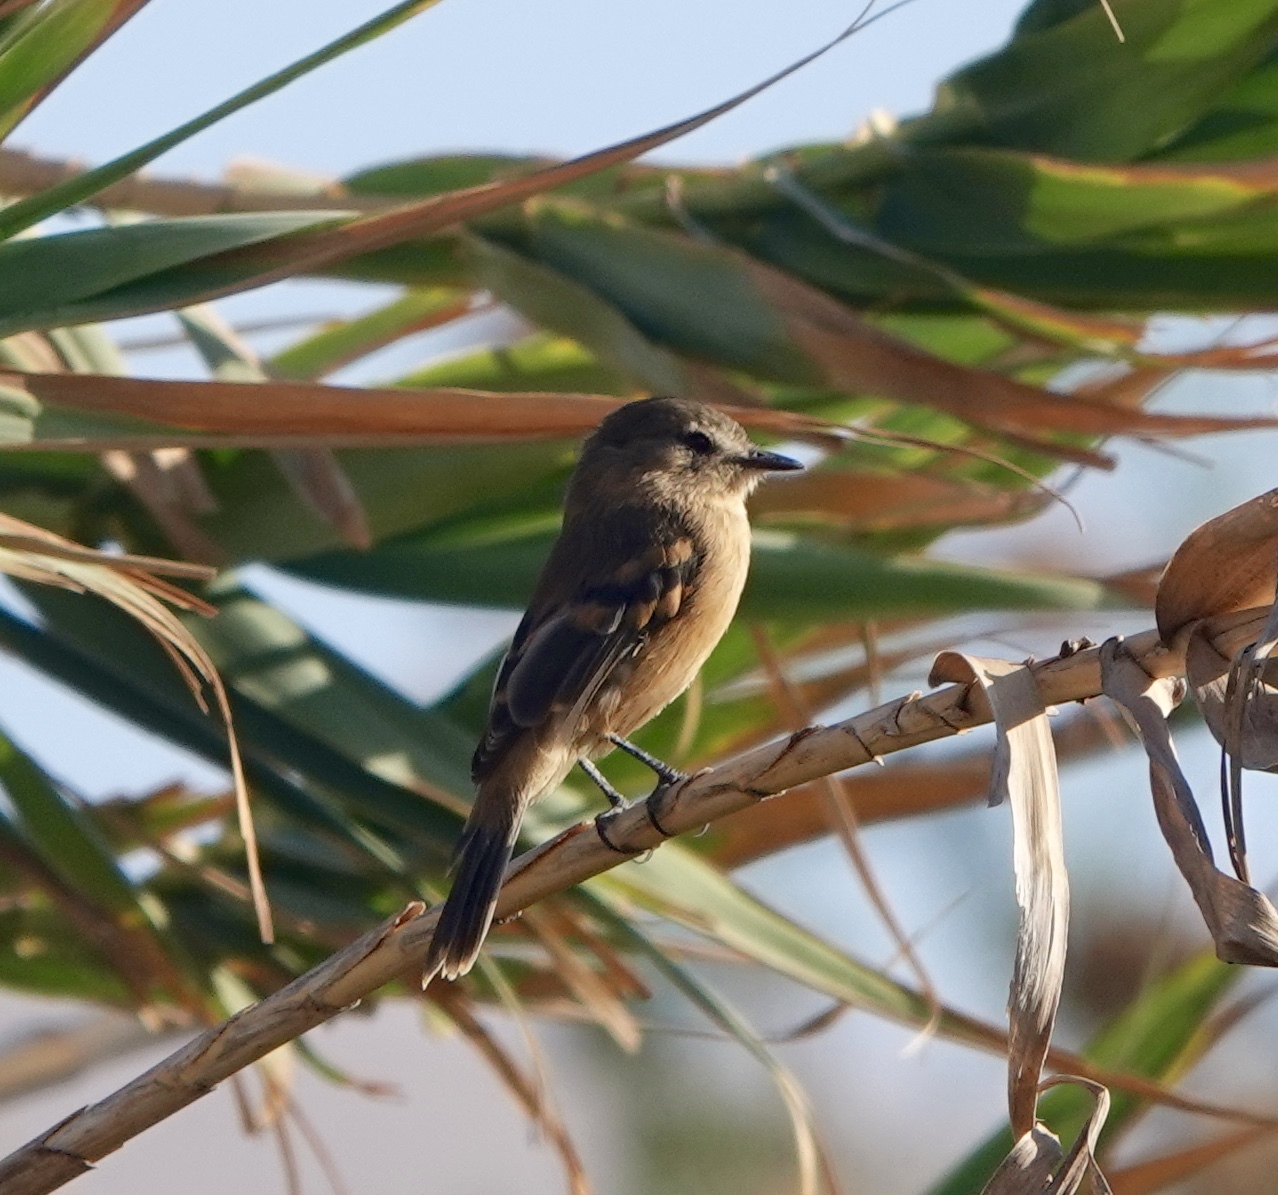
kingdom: Animalia
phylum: Chordata
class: Aves
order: Passeriformes
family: Tyrannidae
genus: Myiophobus
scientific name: Myiophobus fasciatus
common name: Bran-colored flycatcher
